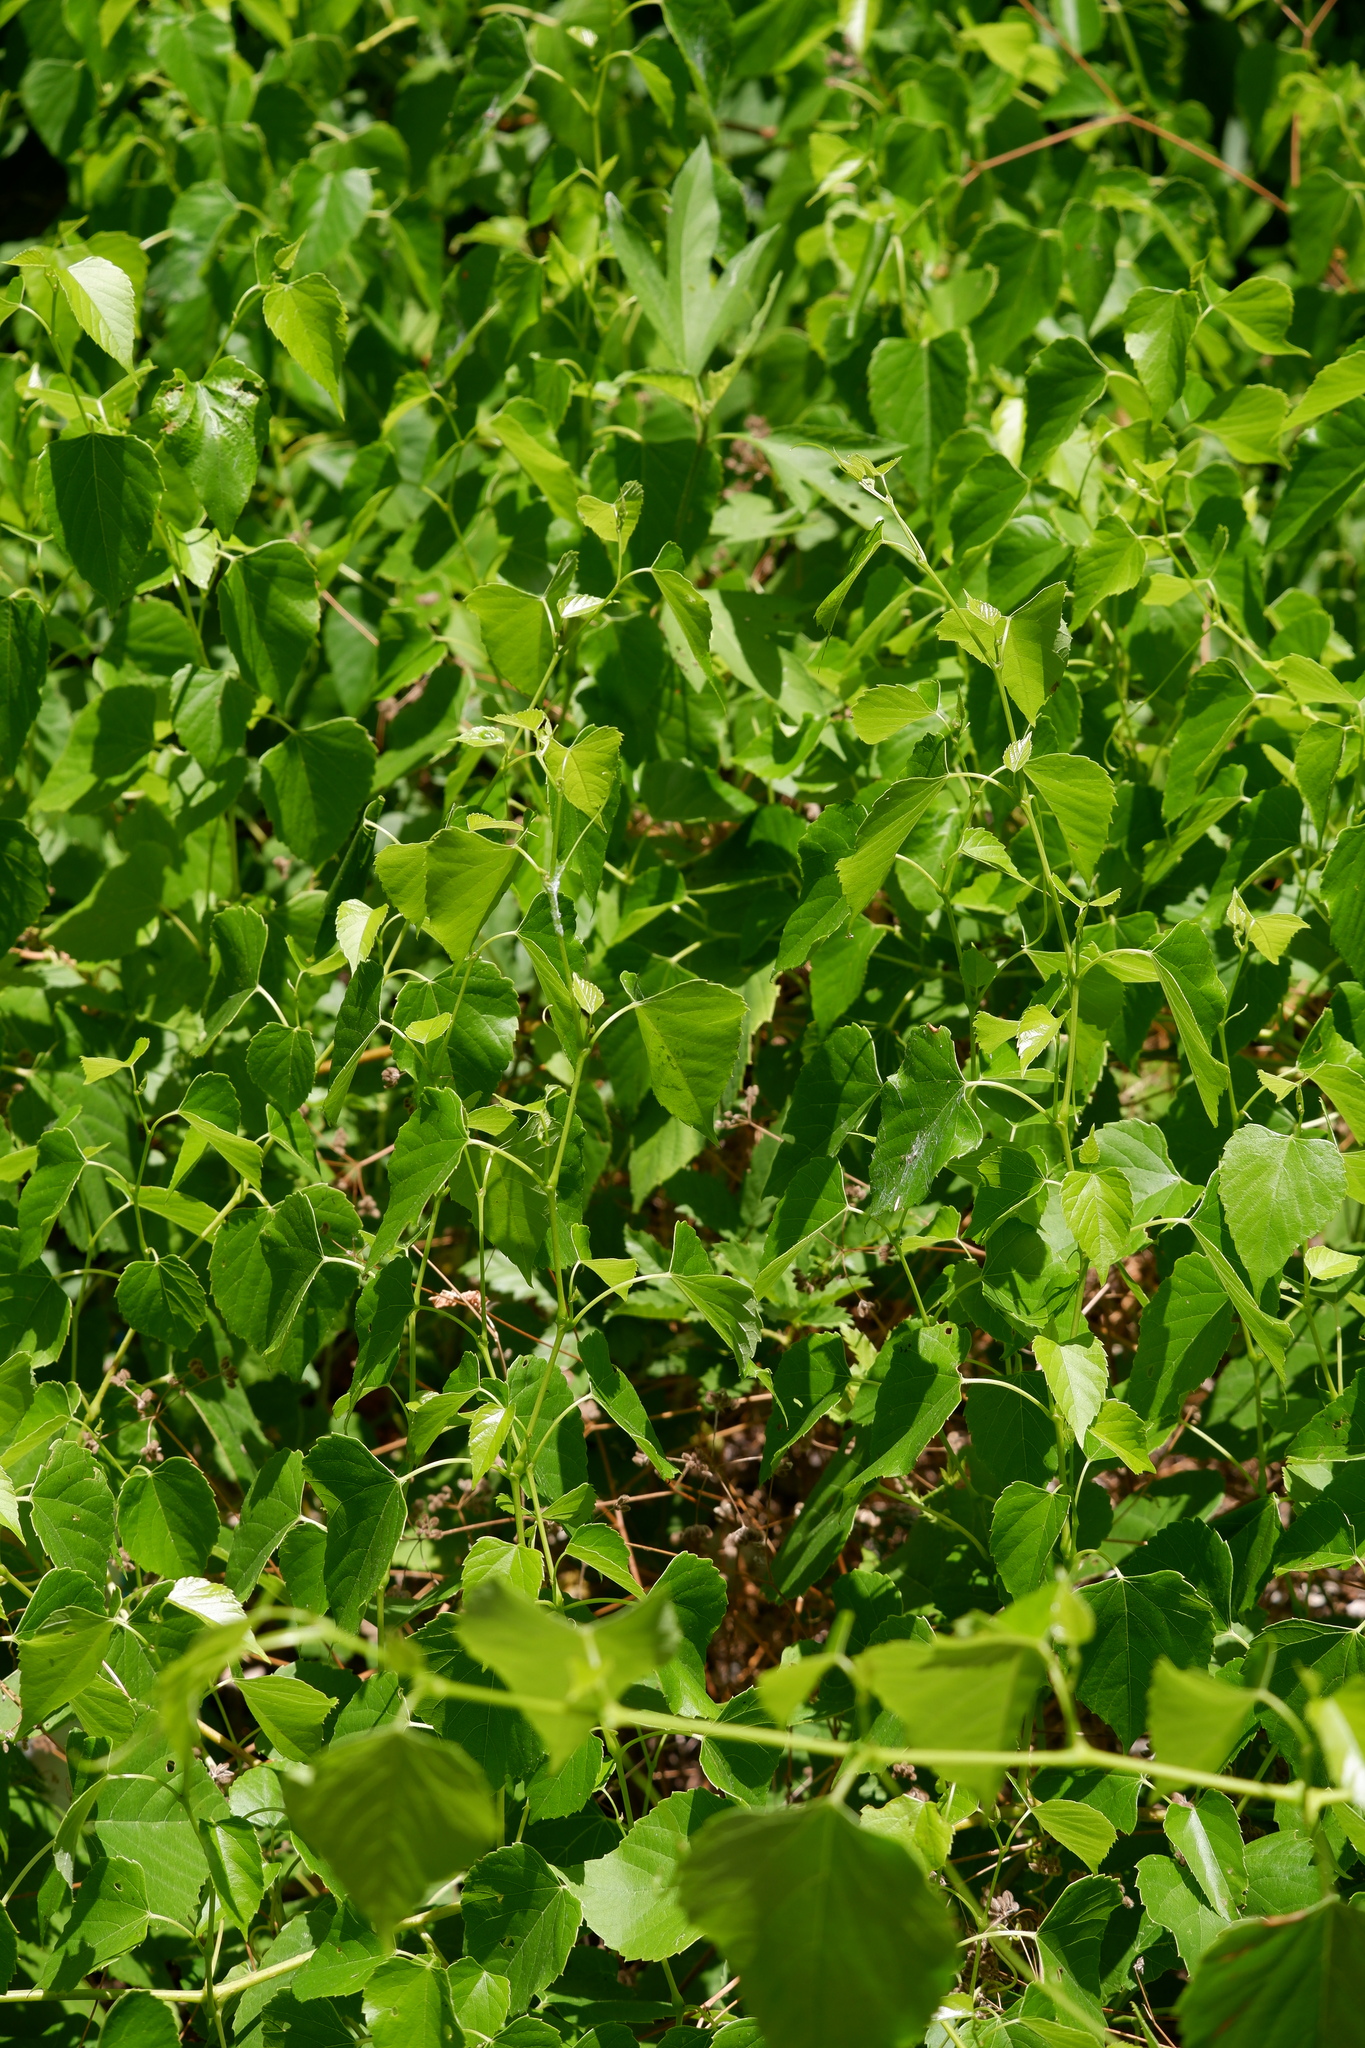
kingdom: Plantae
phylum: Tracheophyta
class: Magnoliopsida
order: Vitales
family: Vitaceae
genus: Ampelopsis
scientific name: Ampelopsis cordata
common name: Heart-leaf ampelopsis
